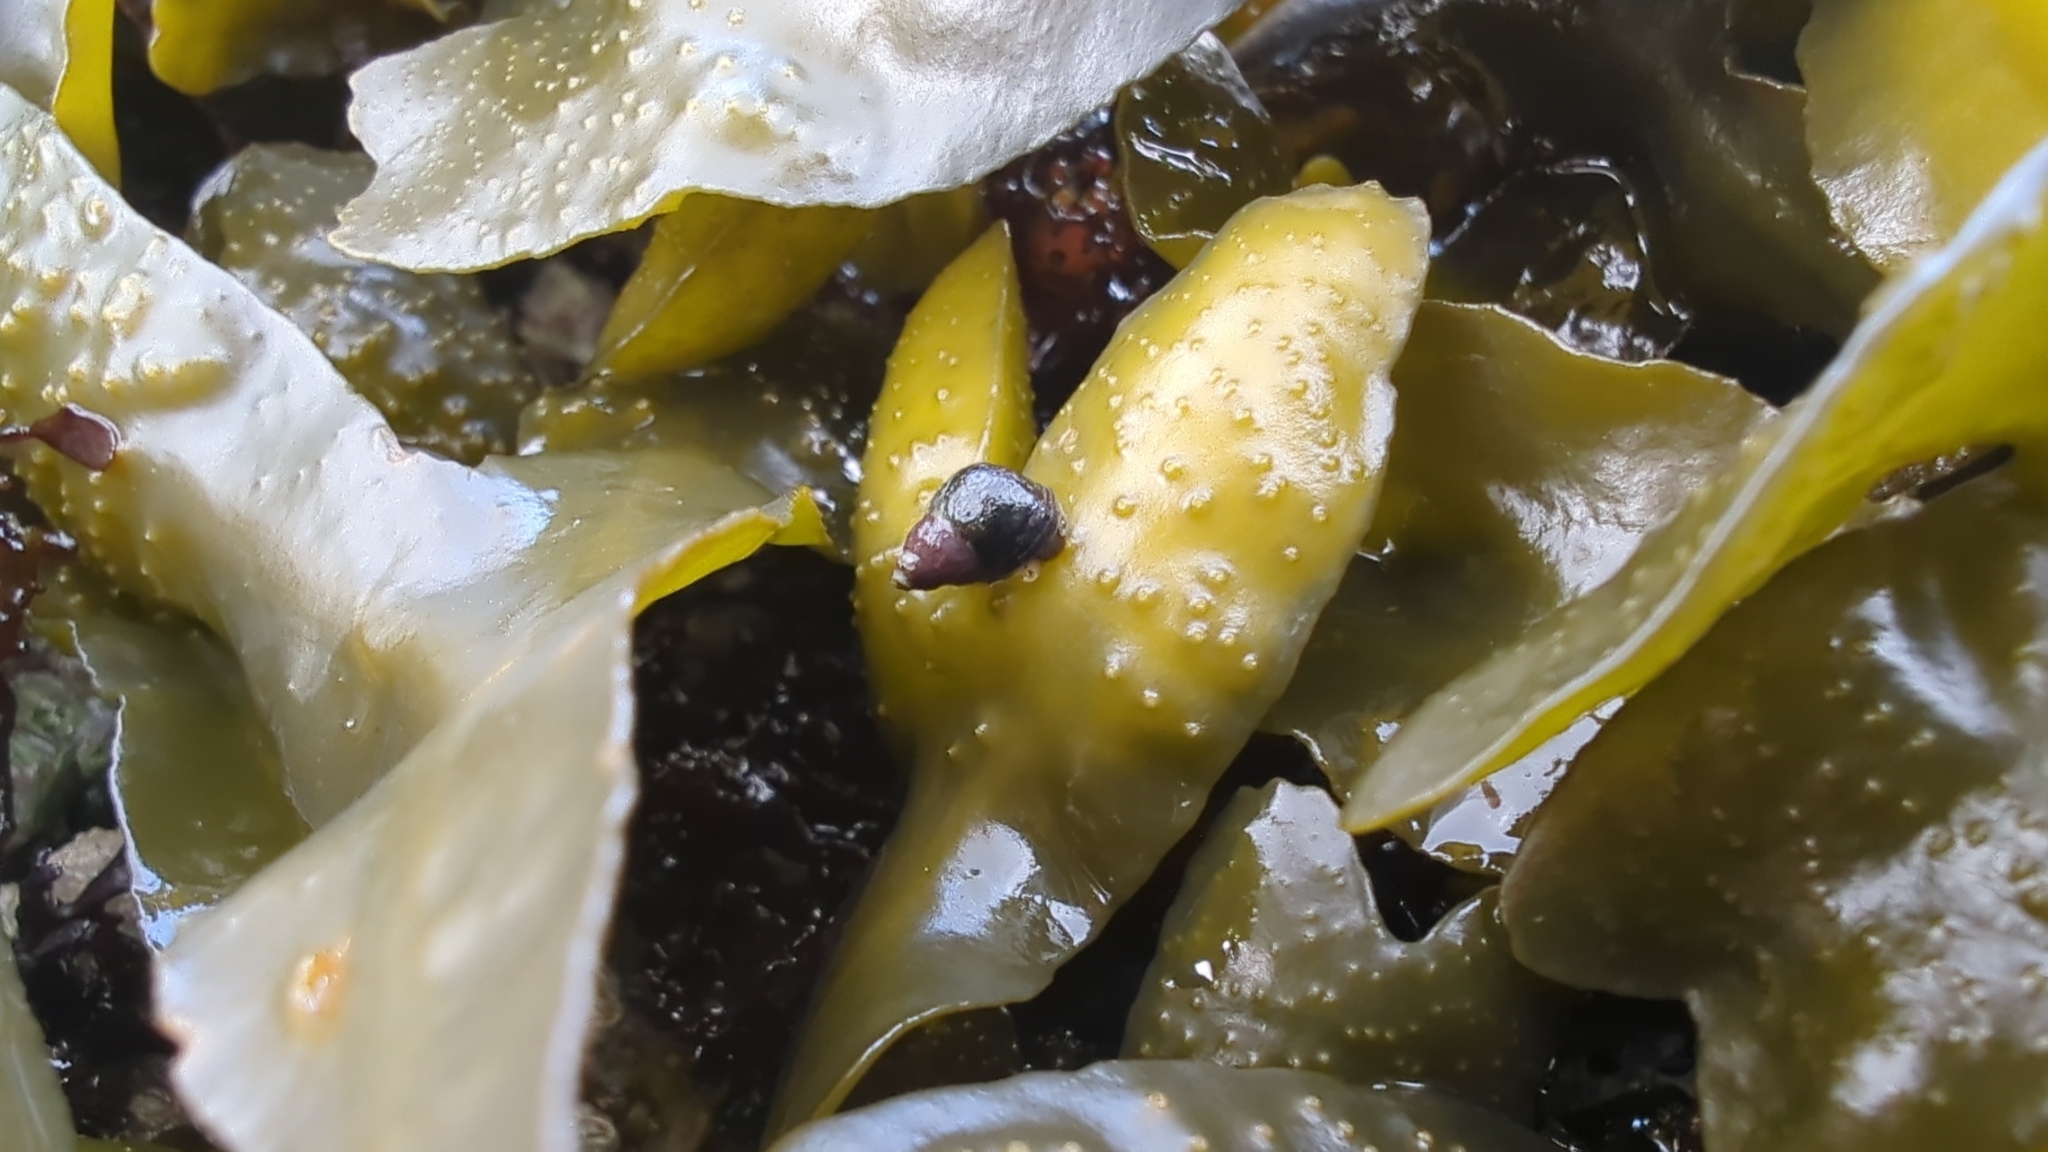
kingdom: Animalia
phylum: Mollusca
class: Gastropoda
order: Littorinimorpha
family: Littorinidae
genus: Littorina
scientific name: Littorina scutulata
